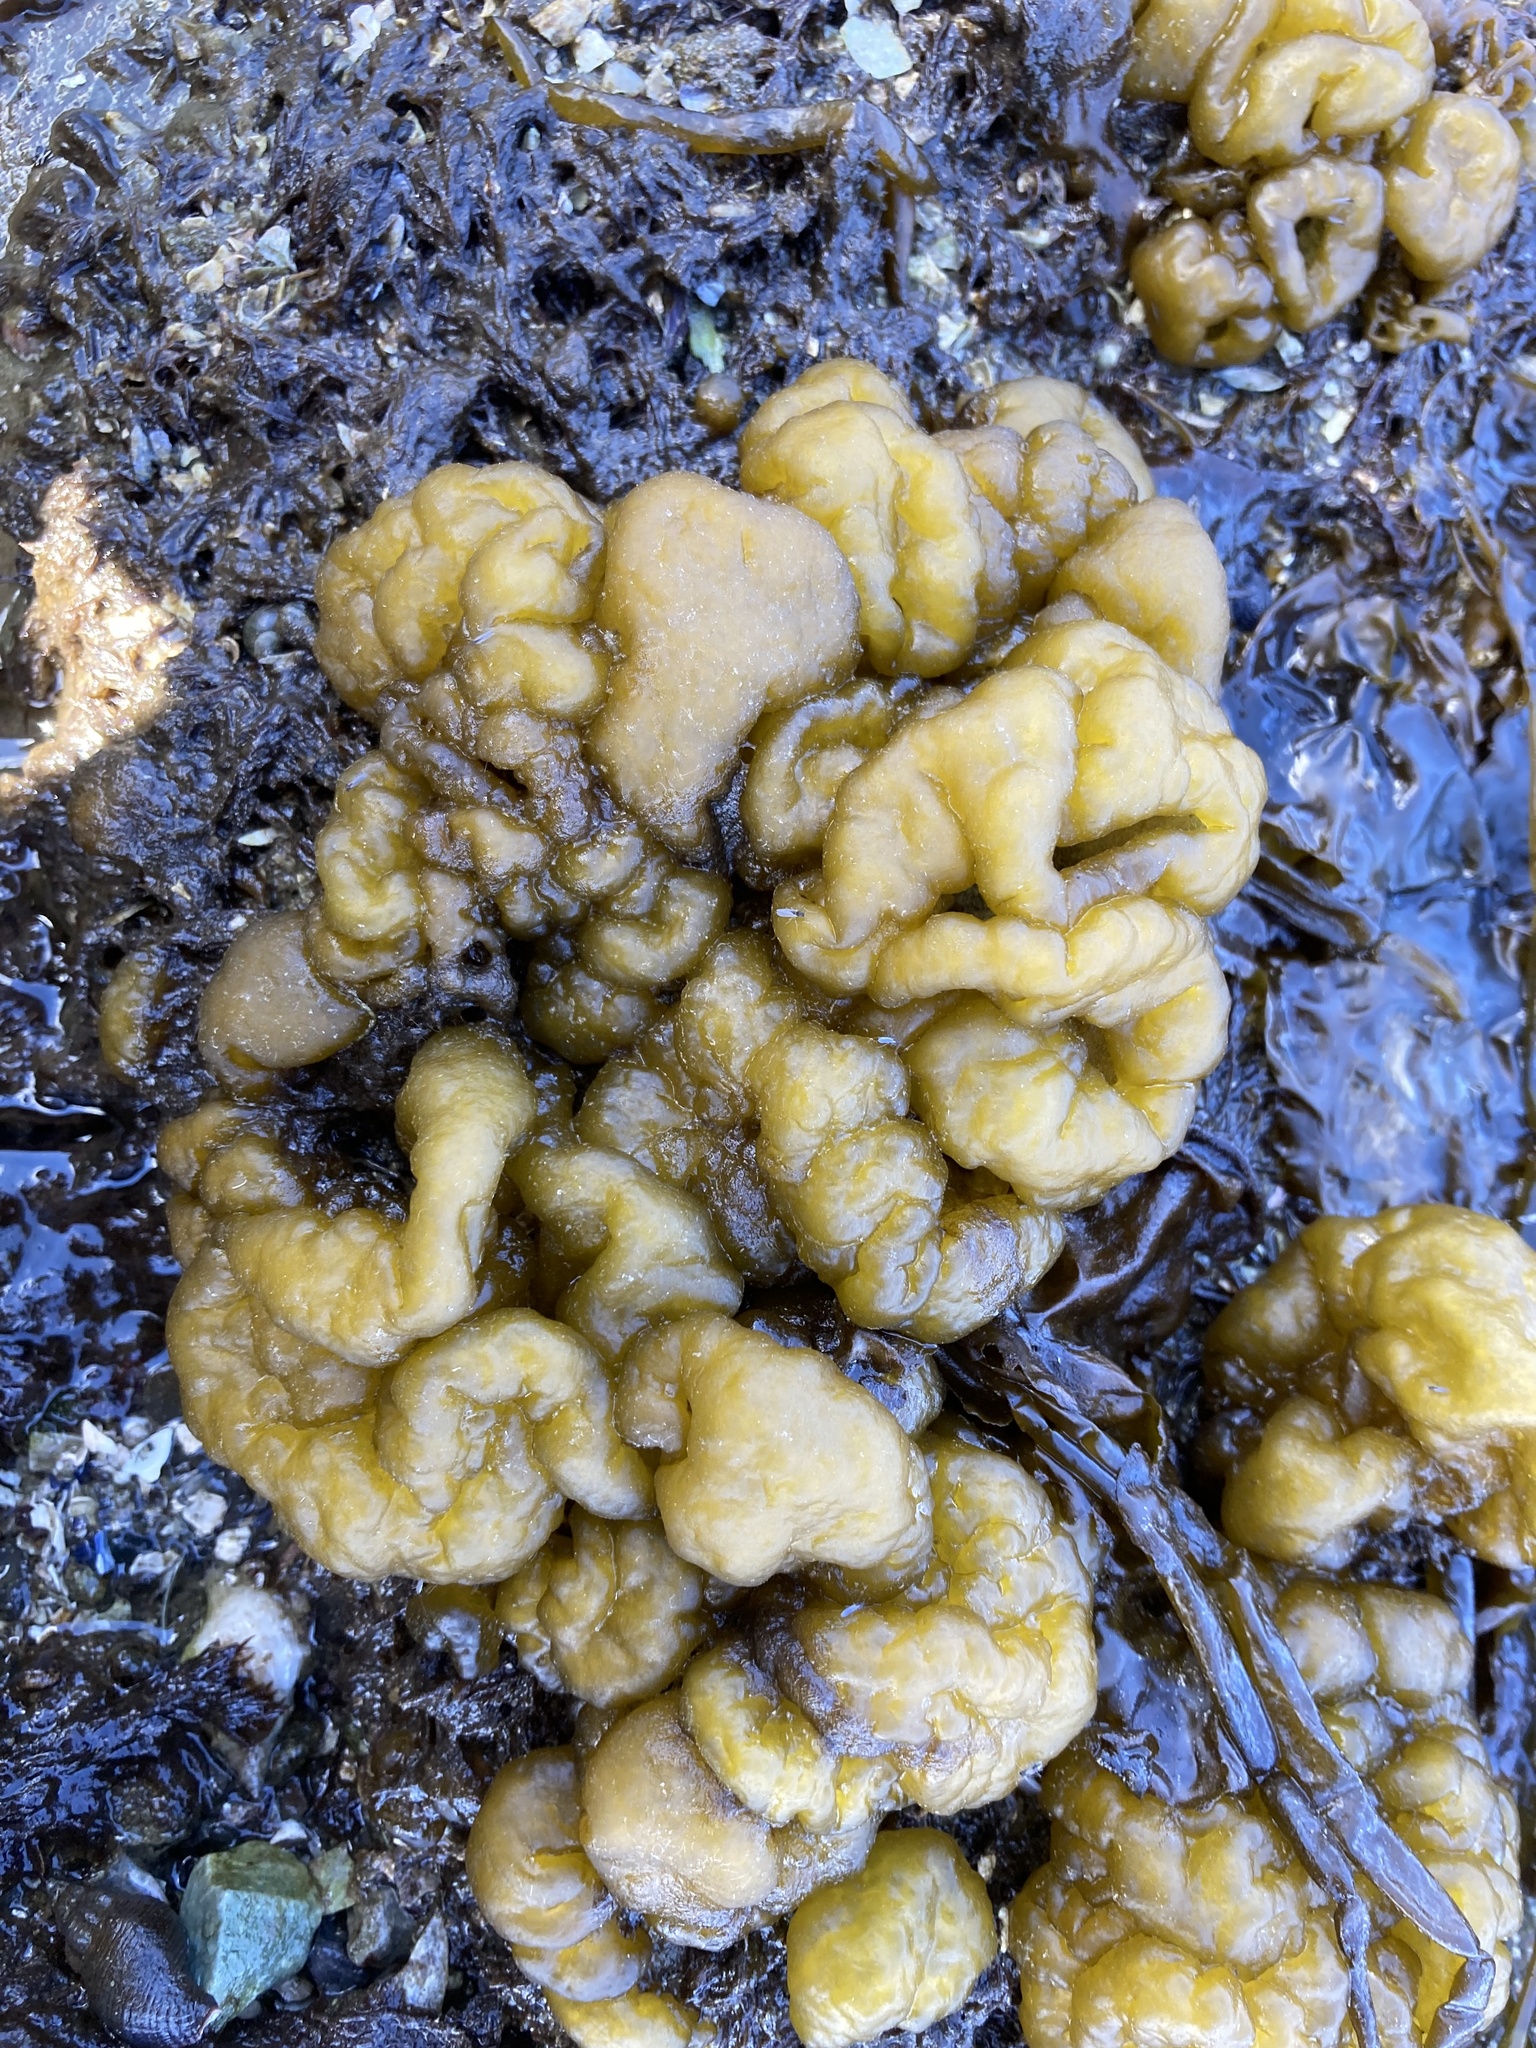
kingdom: Chromista
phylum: Ochrophyta
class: Phaeophyceae
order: Ectocarpales
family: Chordariaceae
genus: Leathesia
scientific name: Leathesia marina
